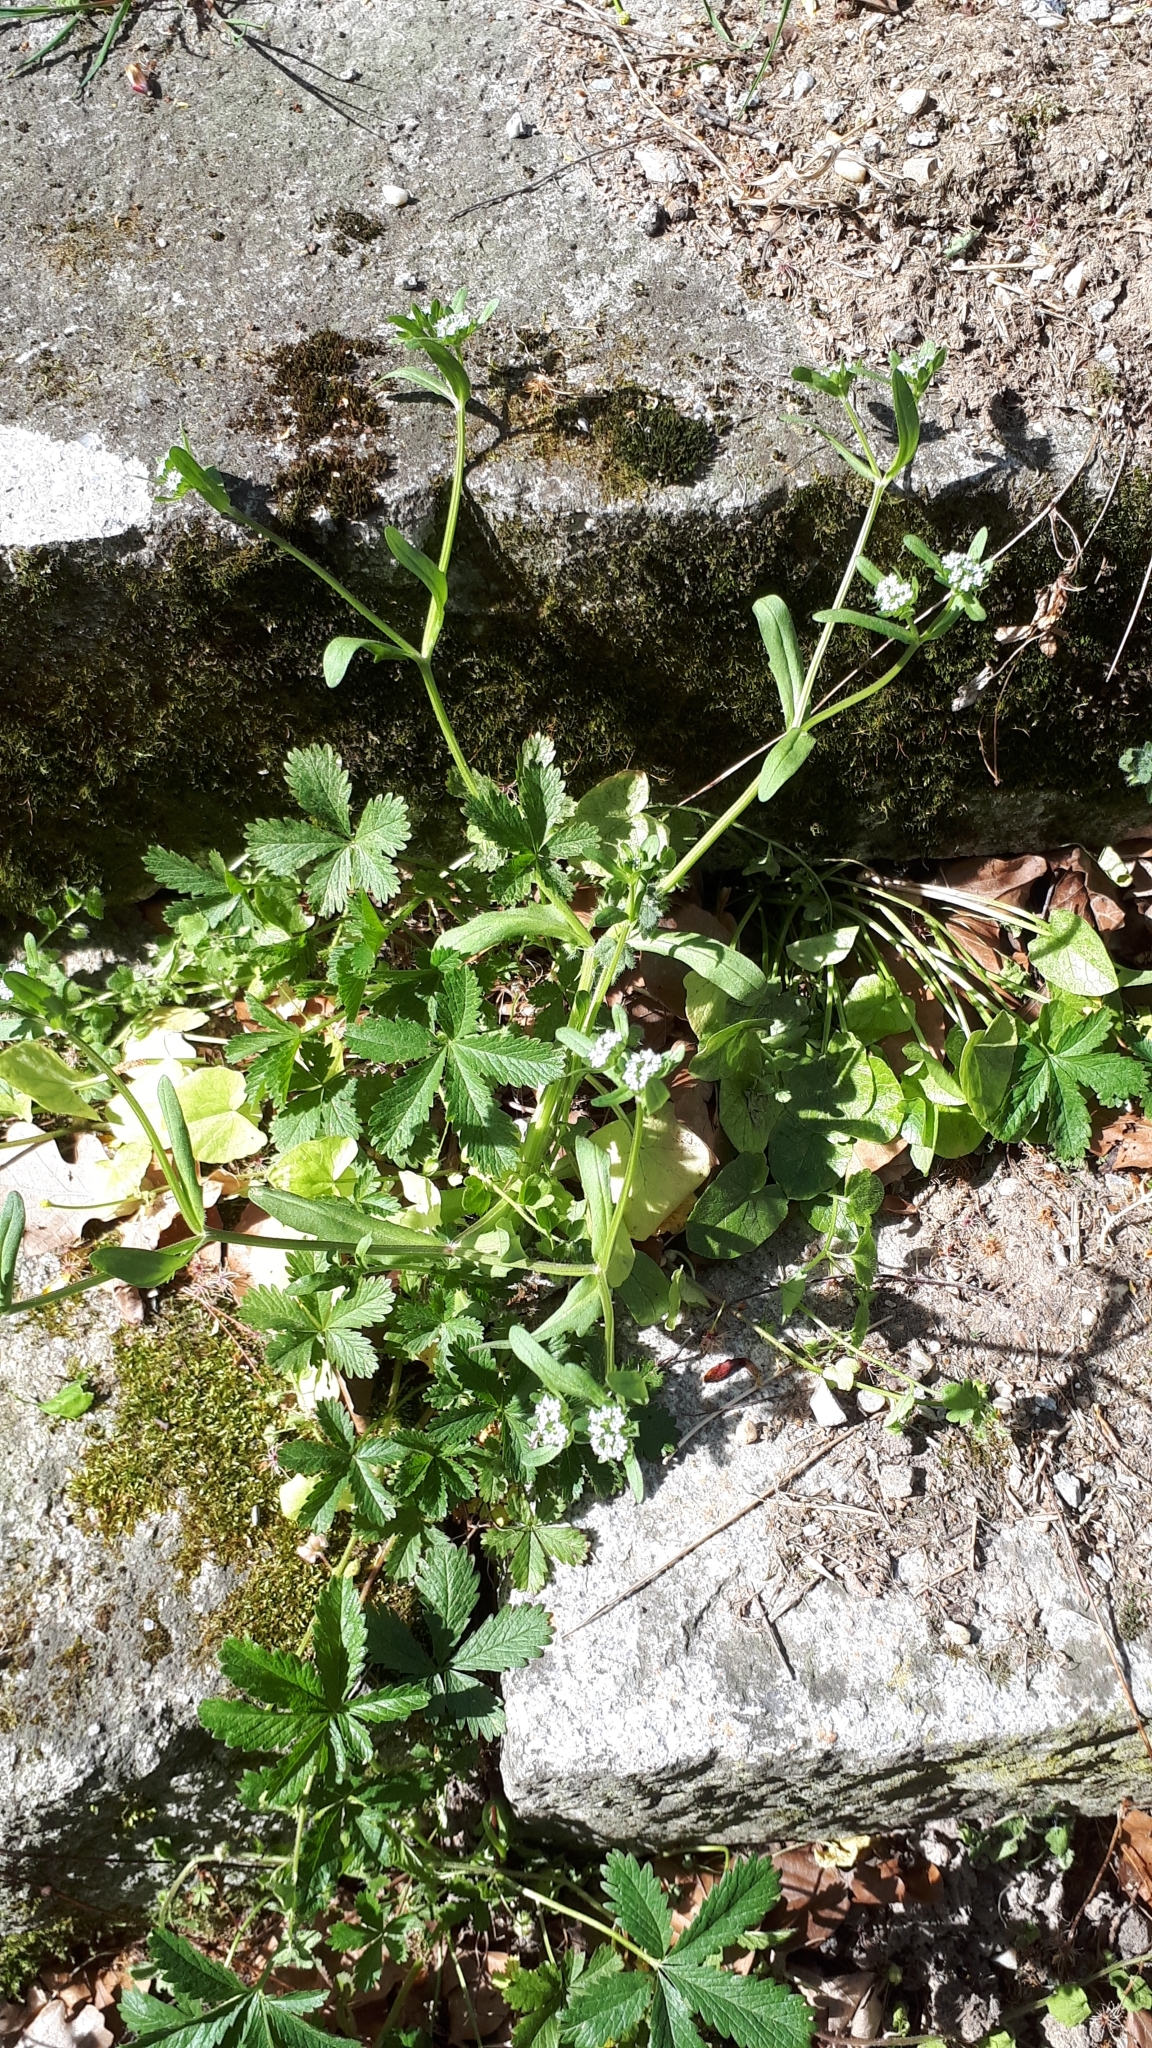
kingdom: Plantae
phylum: Tracheophyta
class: Magnoliopsida
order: Dipsacales
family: Caprifoliaceae
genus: Valerianella
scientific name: Valerianella locusta
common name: Common cornsalad
